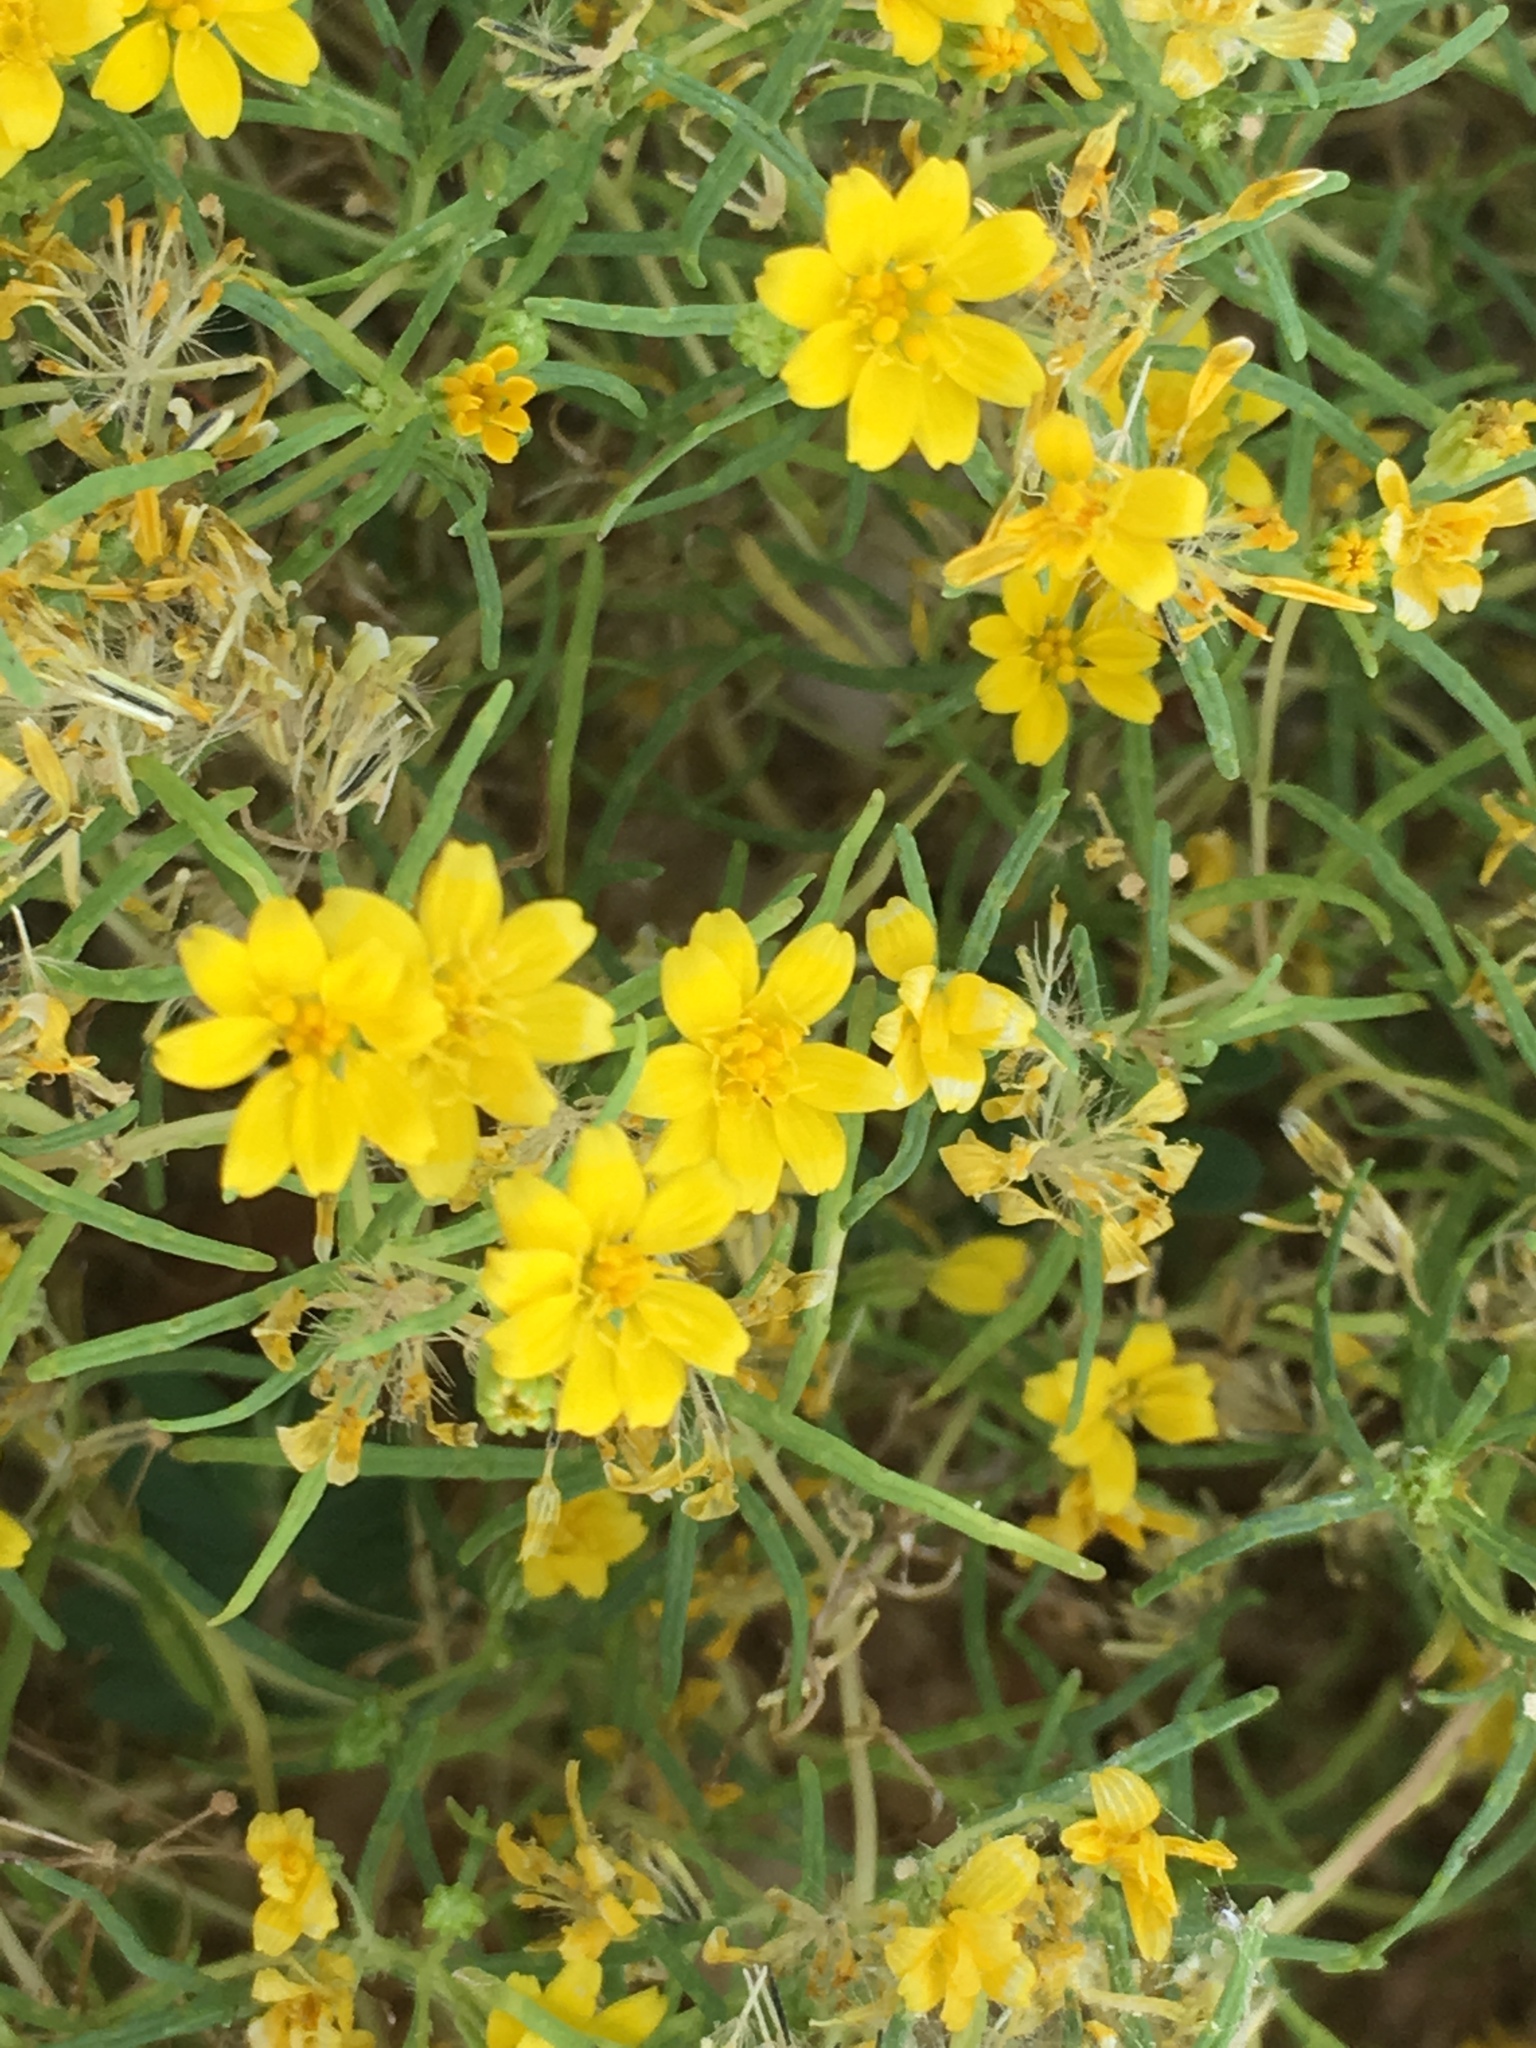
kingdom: Plantae
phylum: Tracheophyta
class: Magnoliopsida
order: Asterales
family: Asteraceae
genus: Pectis
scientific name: Pectis papposa
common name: Many-bristle chinchweed
